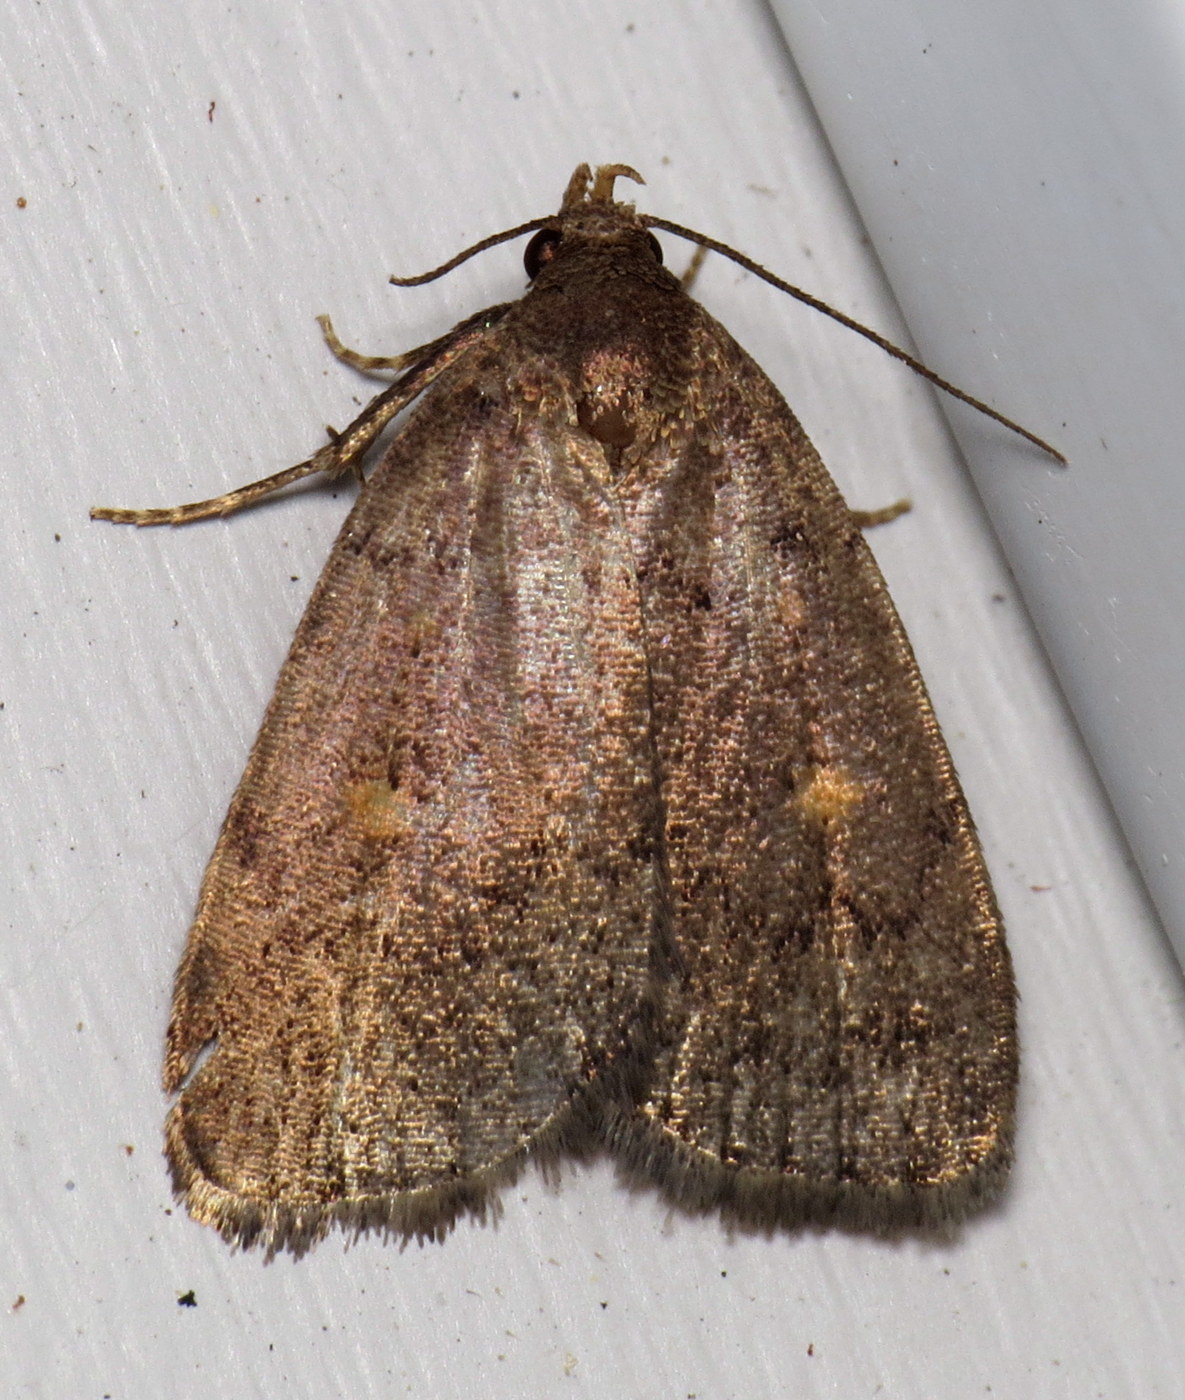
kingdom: Animalia
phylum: Arthropoda
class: Insecta
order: Lepidoptera
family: Erebidae
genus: Idia
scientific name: Idia diminuendis
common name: Orange-spotted idia moth
